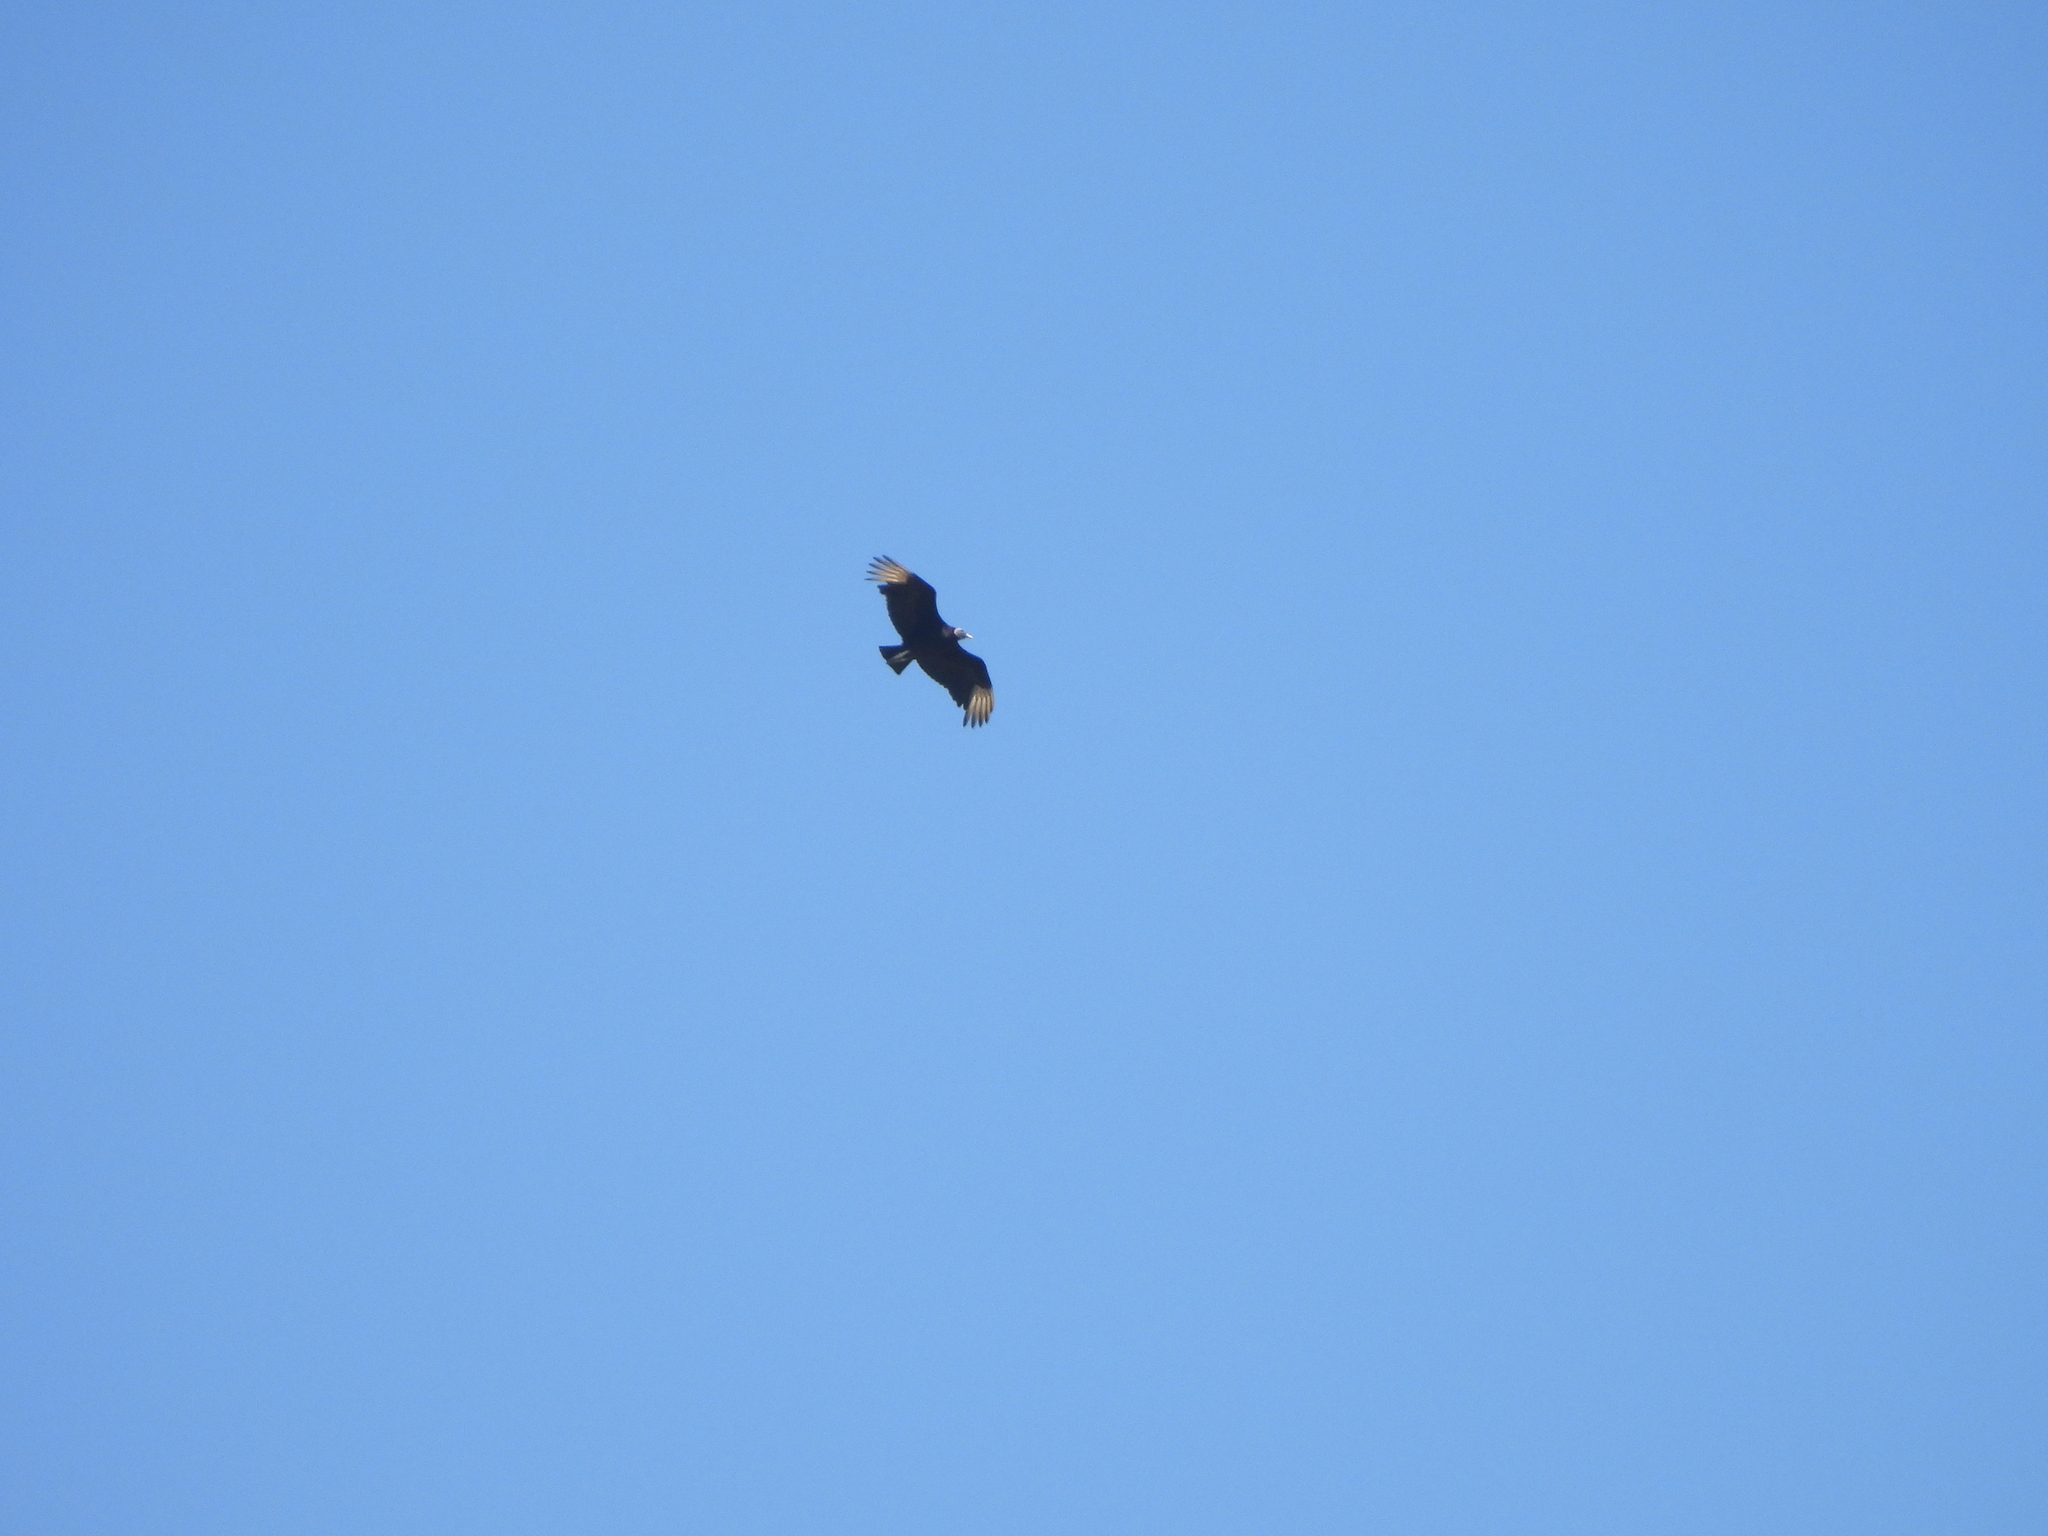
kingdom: Animalia
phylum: Chordata
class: Aves
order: Accipitriformes
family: Cathartidae
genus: Coragyps
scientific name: Coragyps atratus
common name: Black vulture
